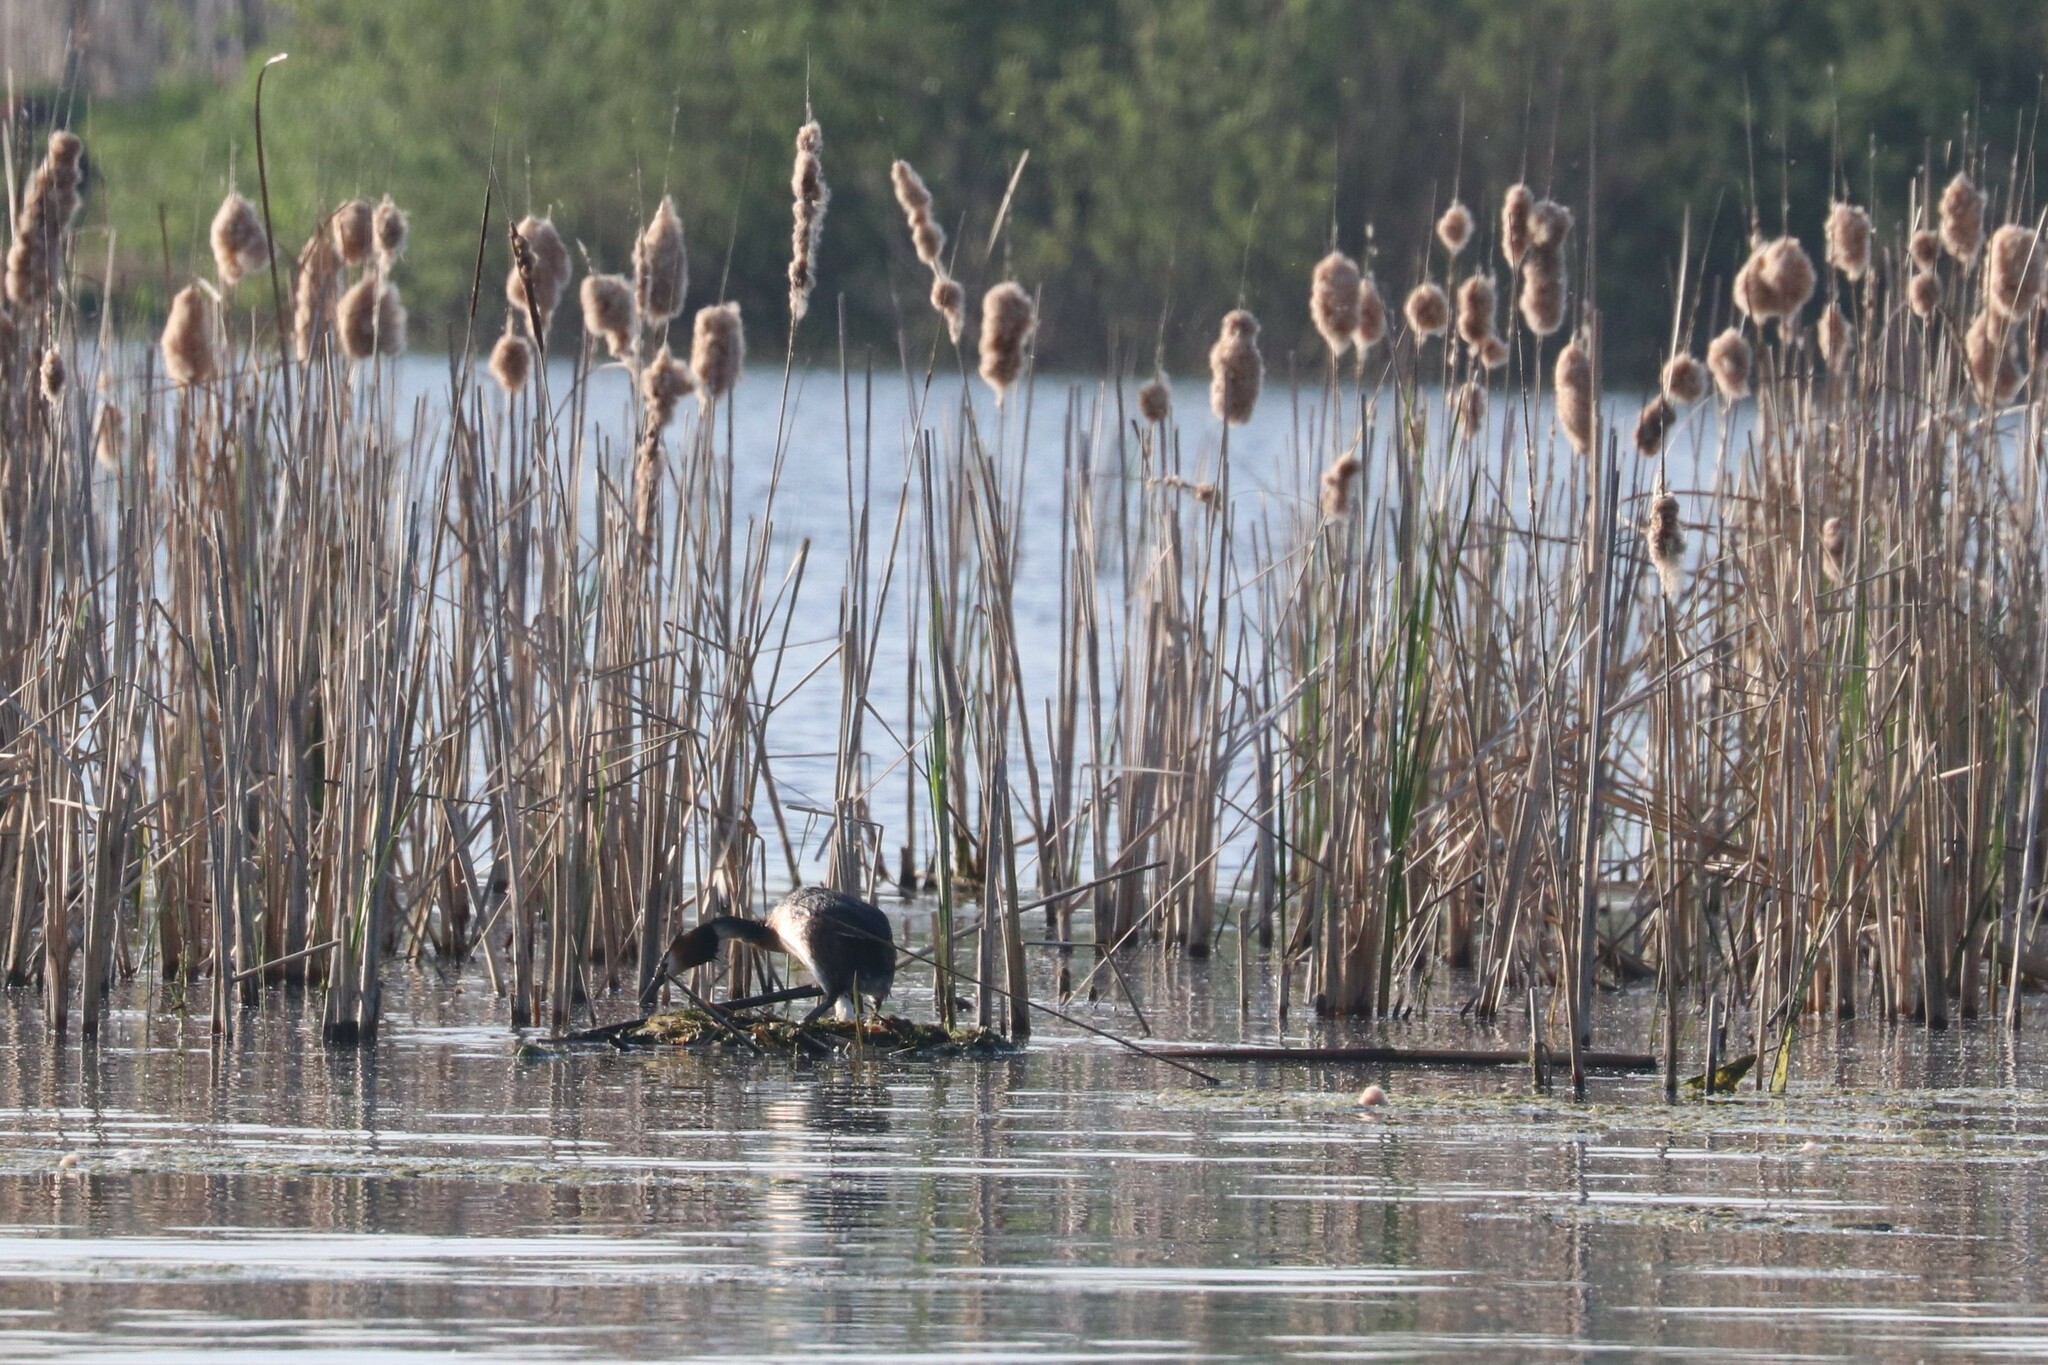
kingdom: Animalia
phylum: Chordata
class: Aves
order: Podicipediformes
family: Podicipedidae
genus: Podiceps
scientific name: Podiceps cristatus
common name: Great crested grebe
